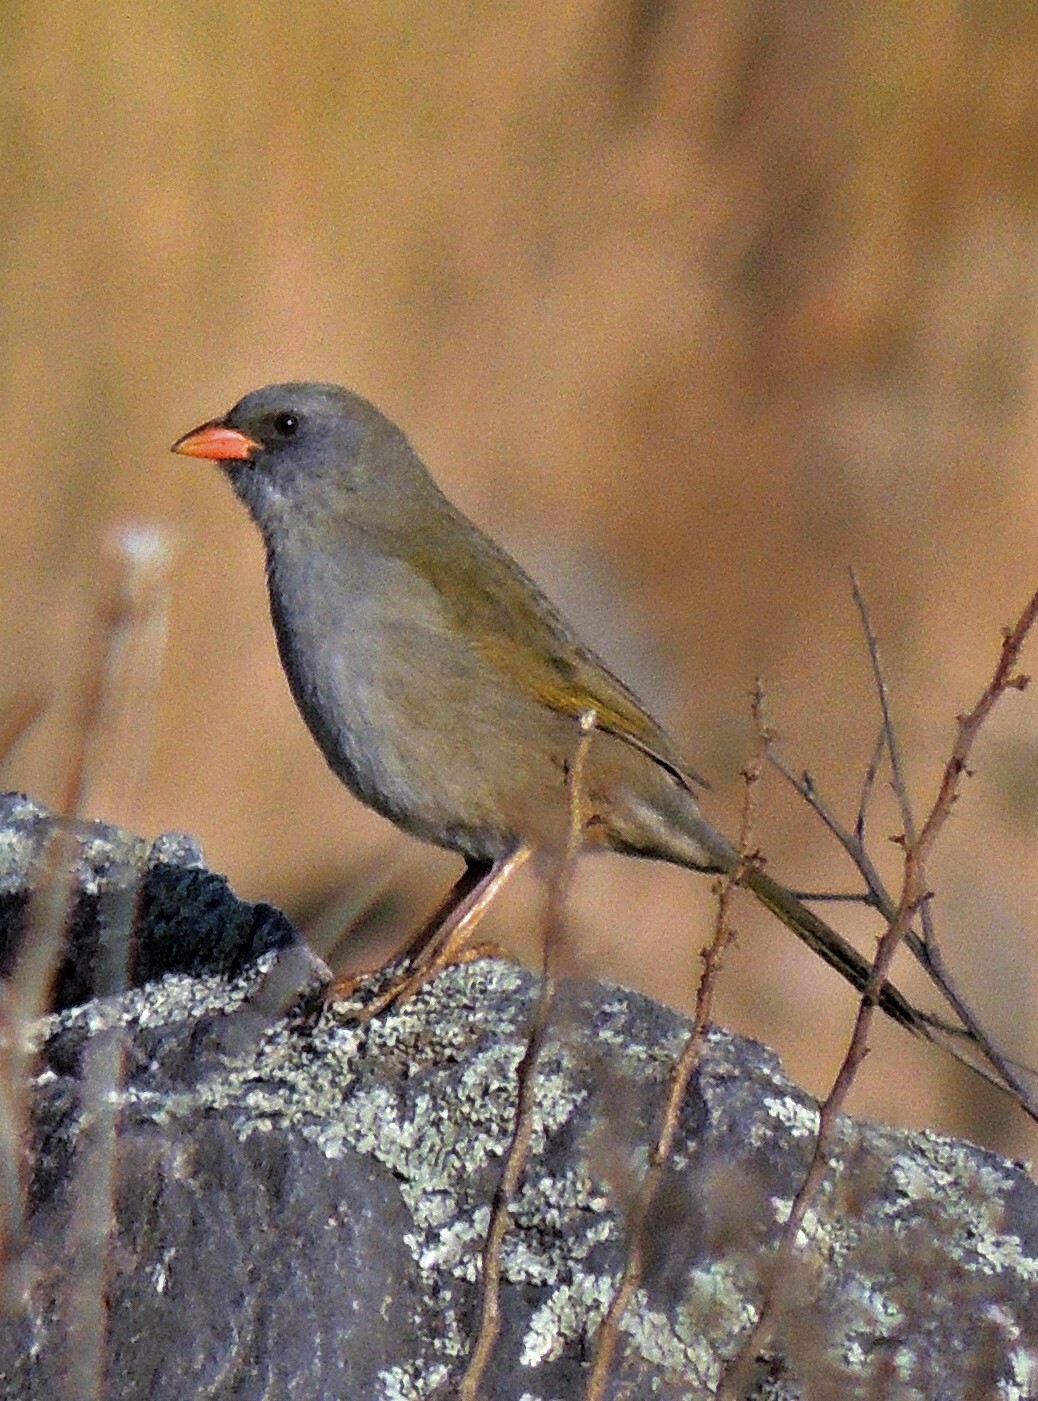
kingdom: Animalia
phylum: Chordata
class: Aves
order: Passeriformes
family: Thraupidae
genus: Embernagra
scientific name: Embernagra platensis
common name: Pampa finch
